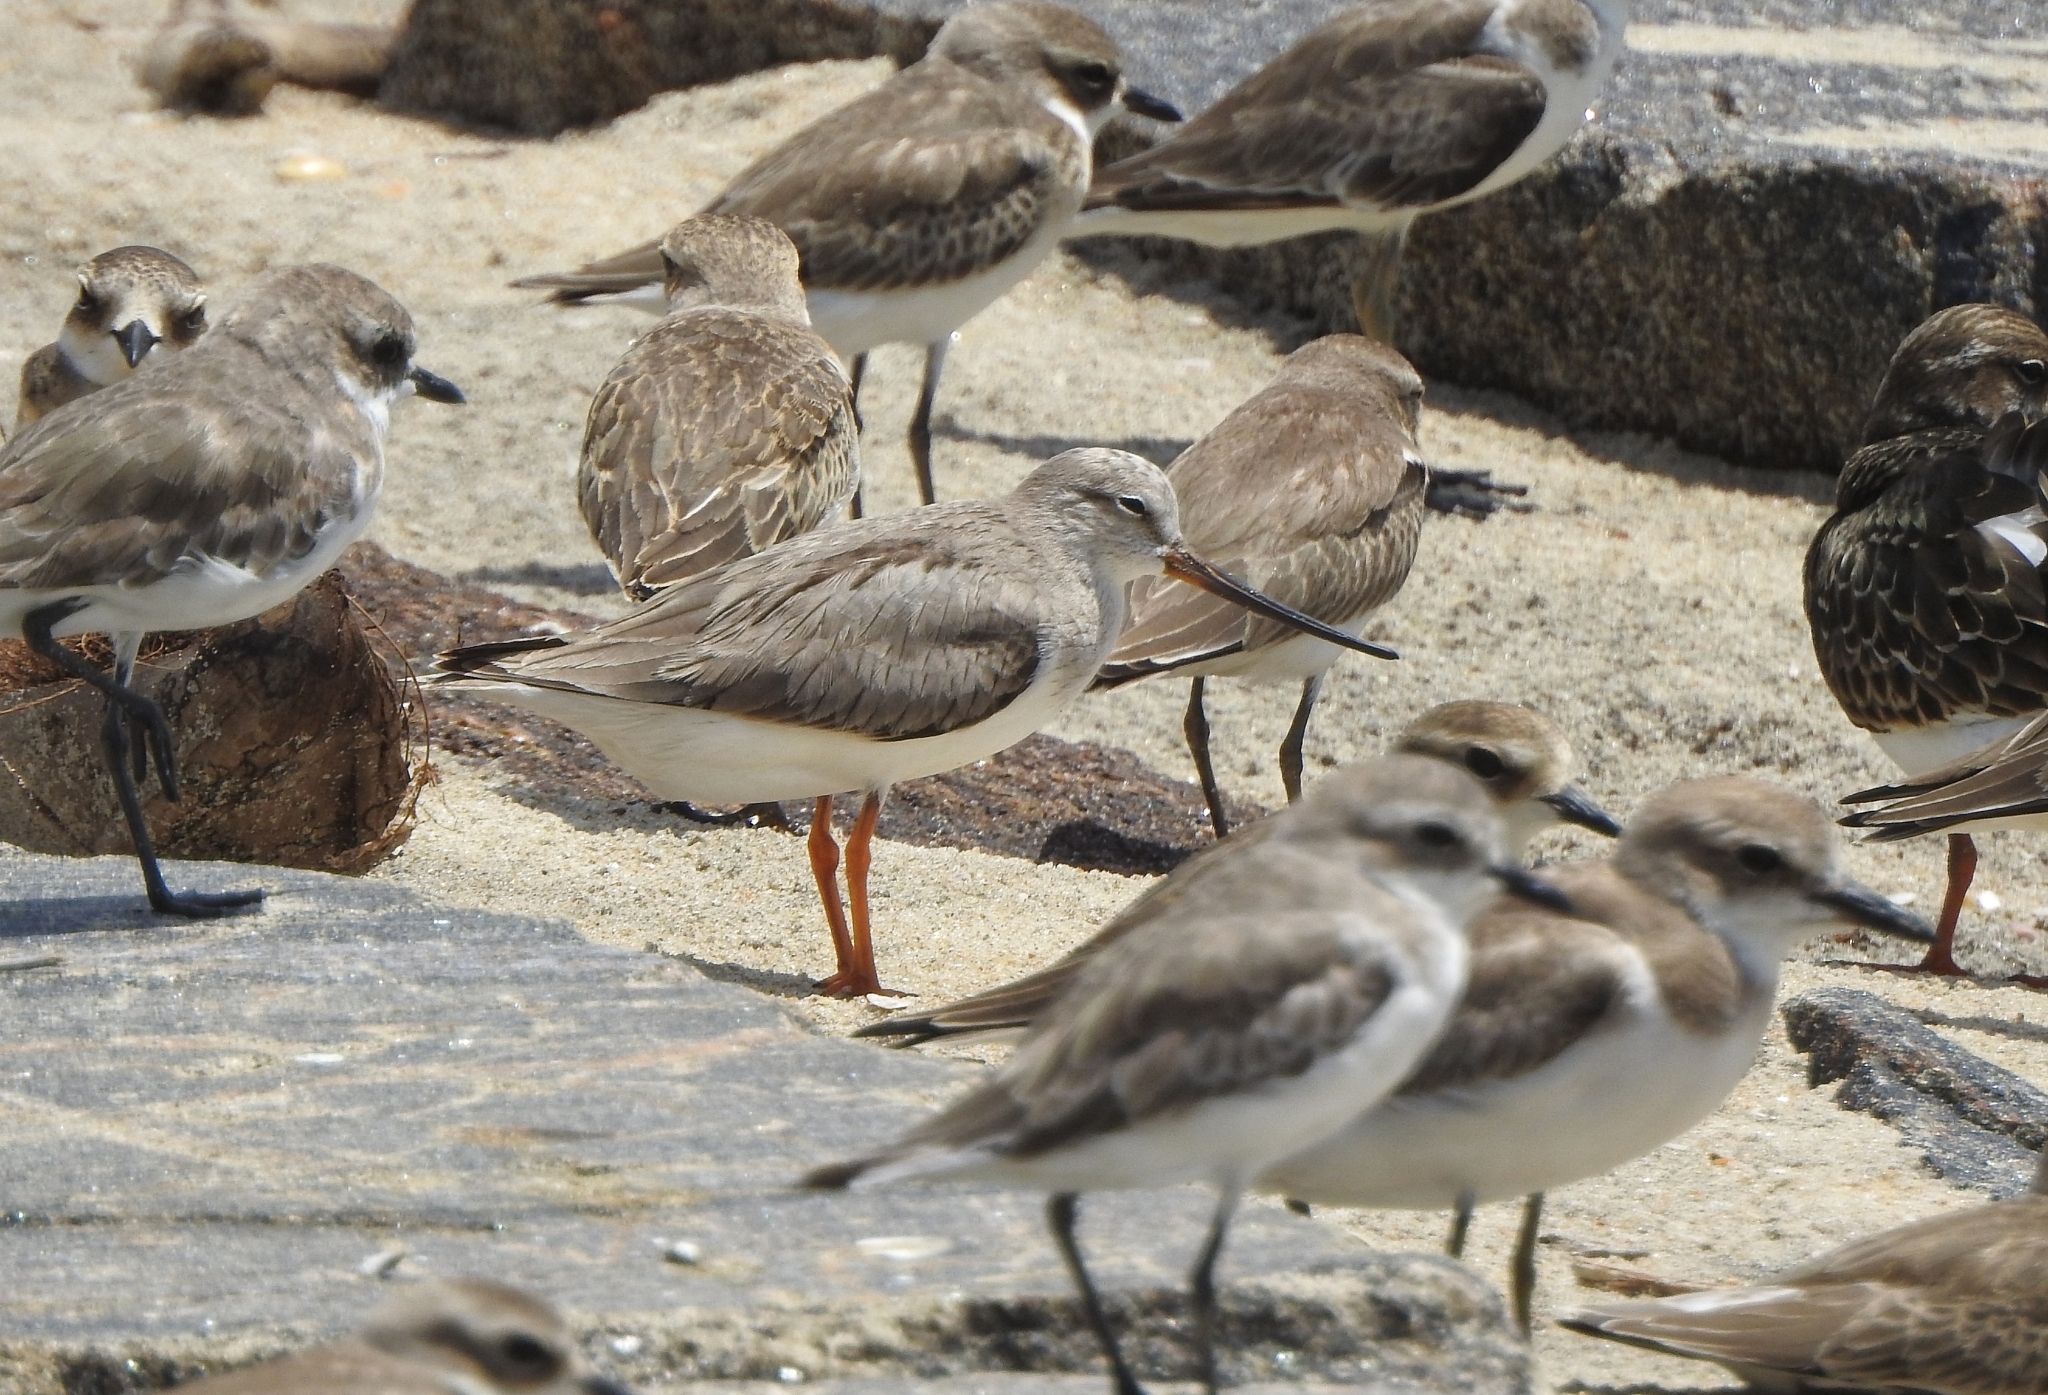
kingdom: Animalia
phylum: Chordata
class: Aves
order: Charadriiformes
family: Charadriidae
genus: Anarhynchus
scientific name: Anarhynchus
